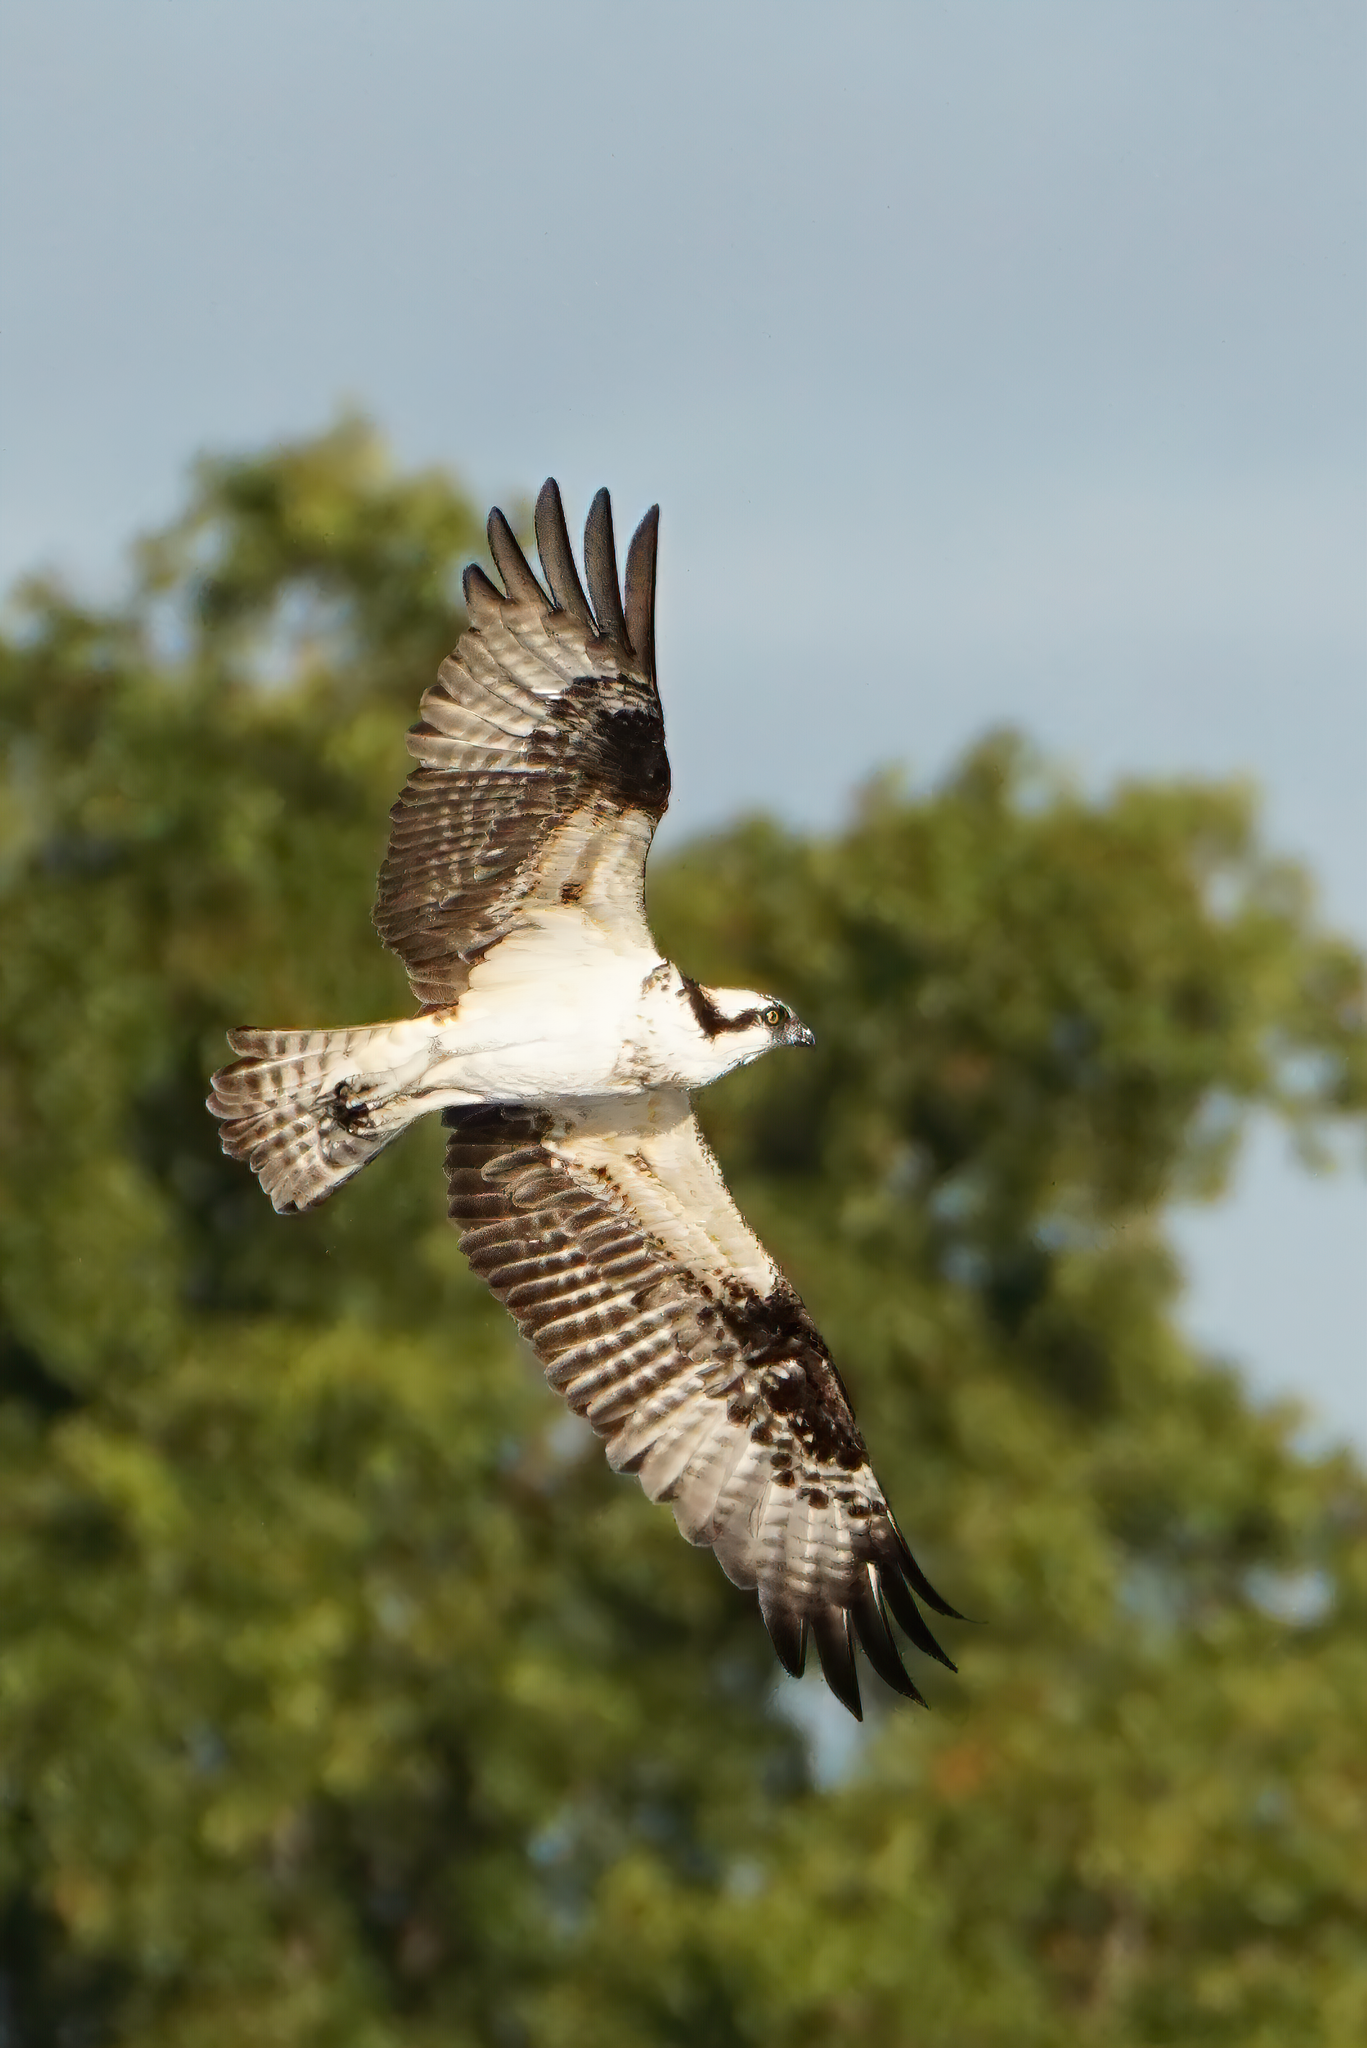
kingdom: Animalia
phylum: Chordata
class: Aves
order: Accipitriformes
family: Pandionidae
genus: Pandion
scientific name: Pandion haliaetus
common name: Osprey
